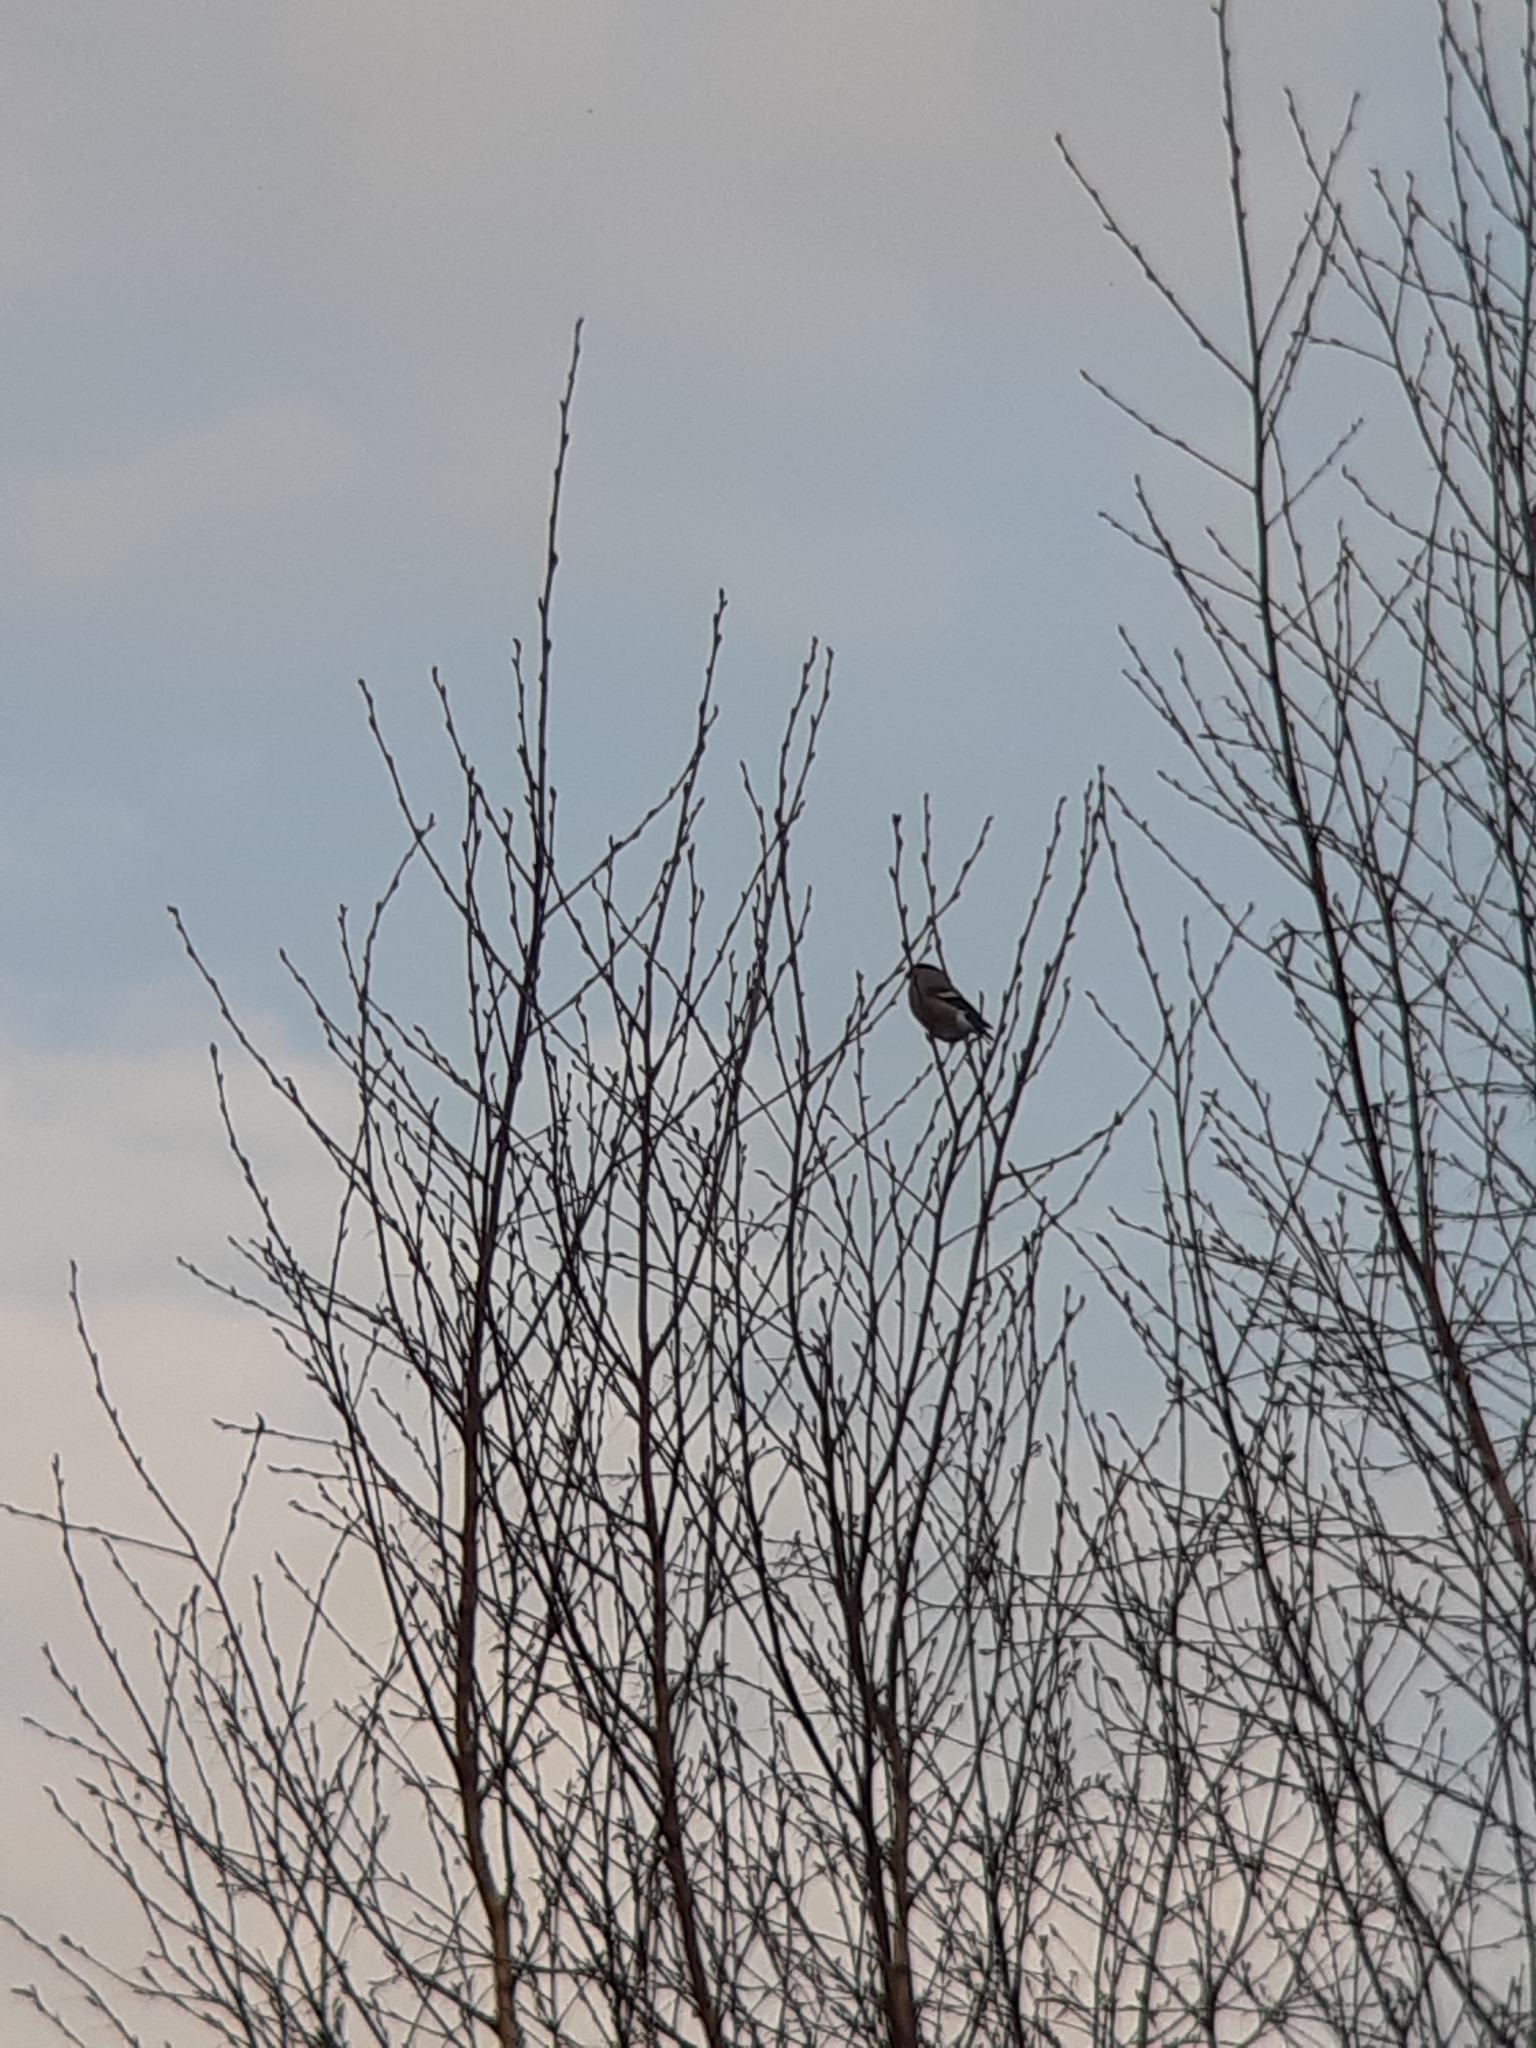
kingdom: Animalia
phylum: Chordata
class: Aves
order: Passeriformes
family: Fringillidae
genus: Pyrrhula
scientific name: Pyrrhula pyrrhula
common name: Eurasian bullfinch
